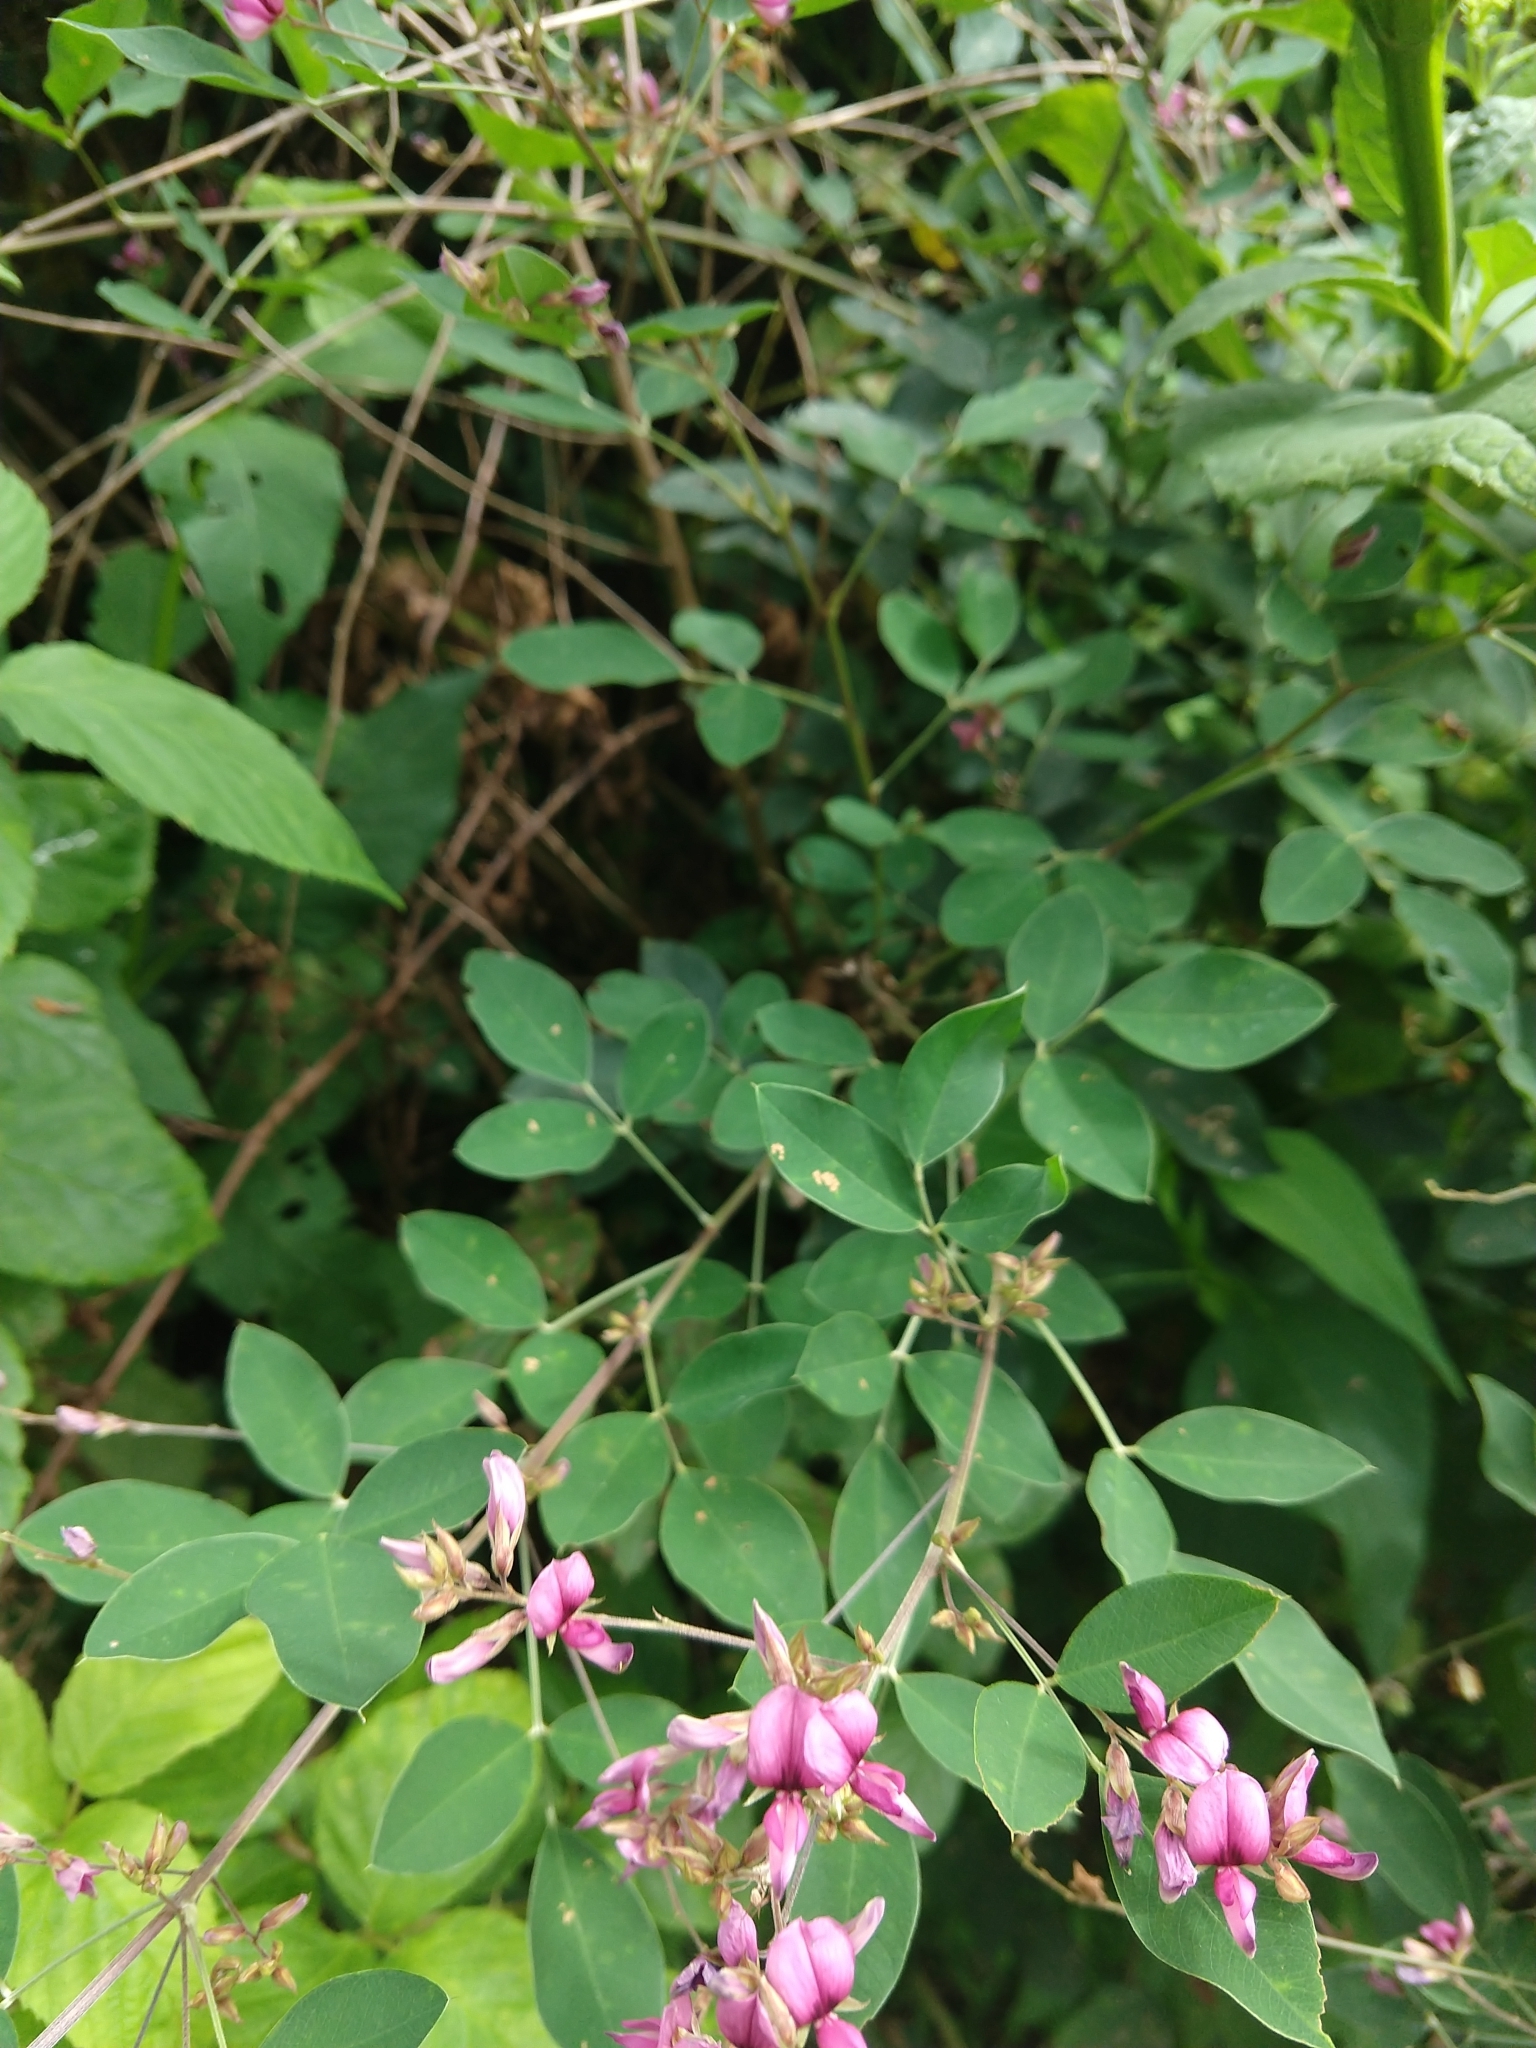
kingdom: Plantae
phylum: Tracheophyta
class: Magnoliopsida
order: Fabales
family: Fabaceae
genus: Lespedeza
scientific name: Lespedeza bicolor
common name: Shrub lespedeza
